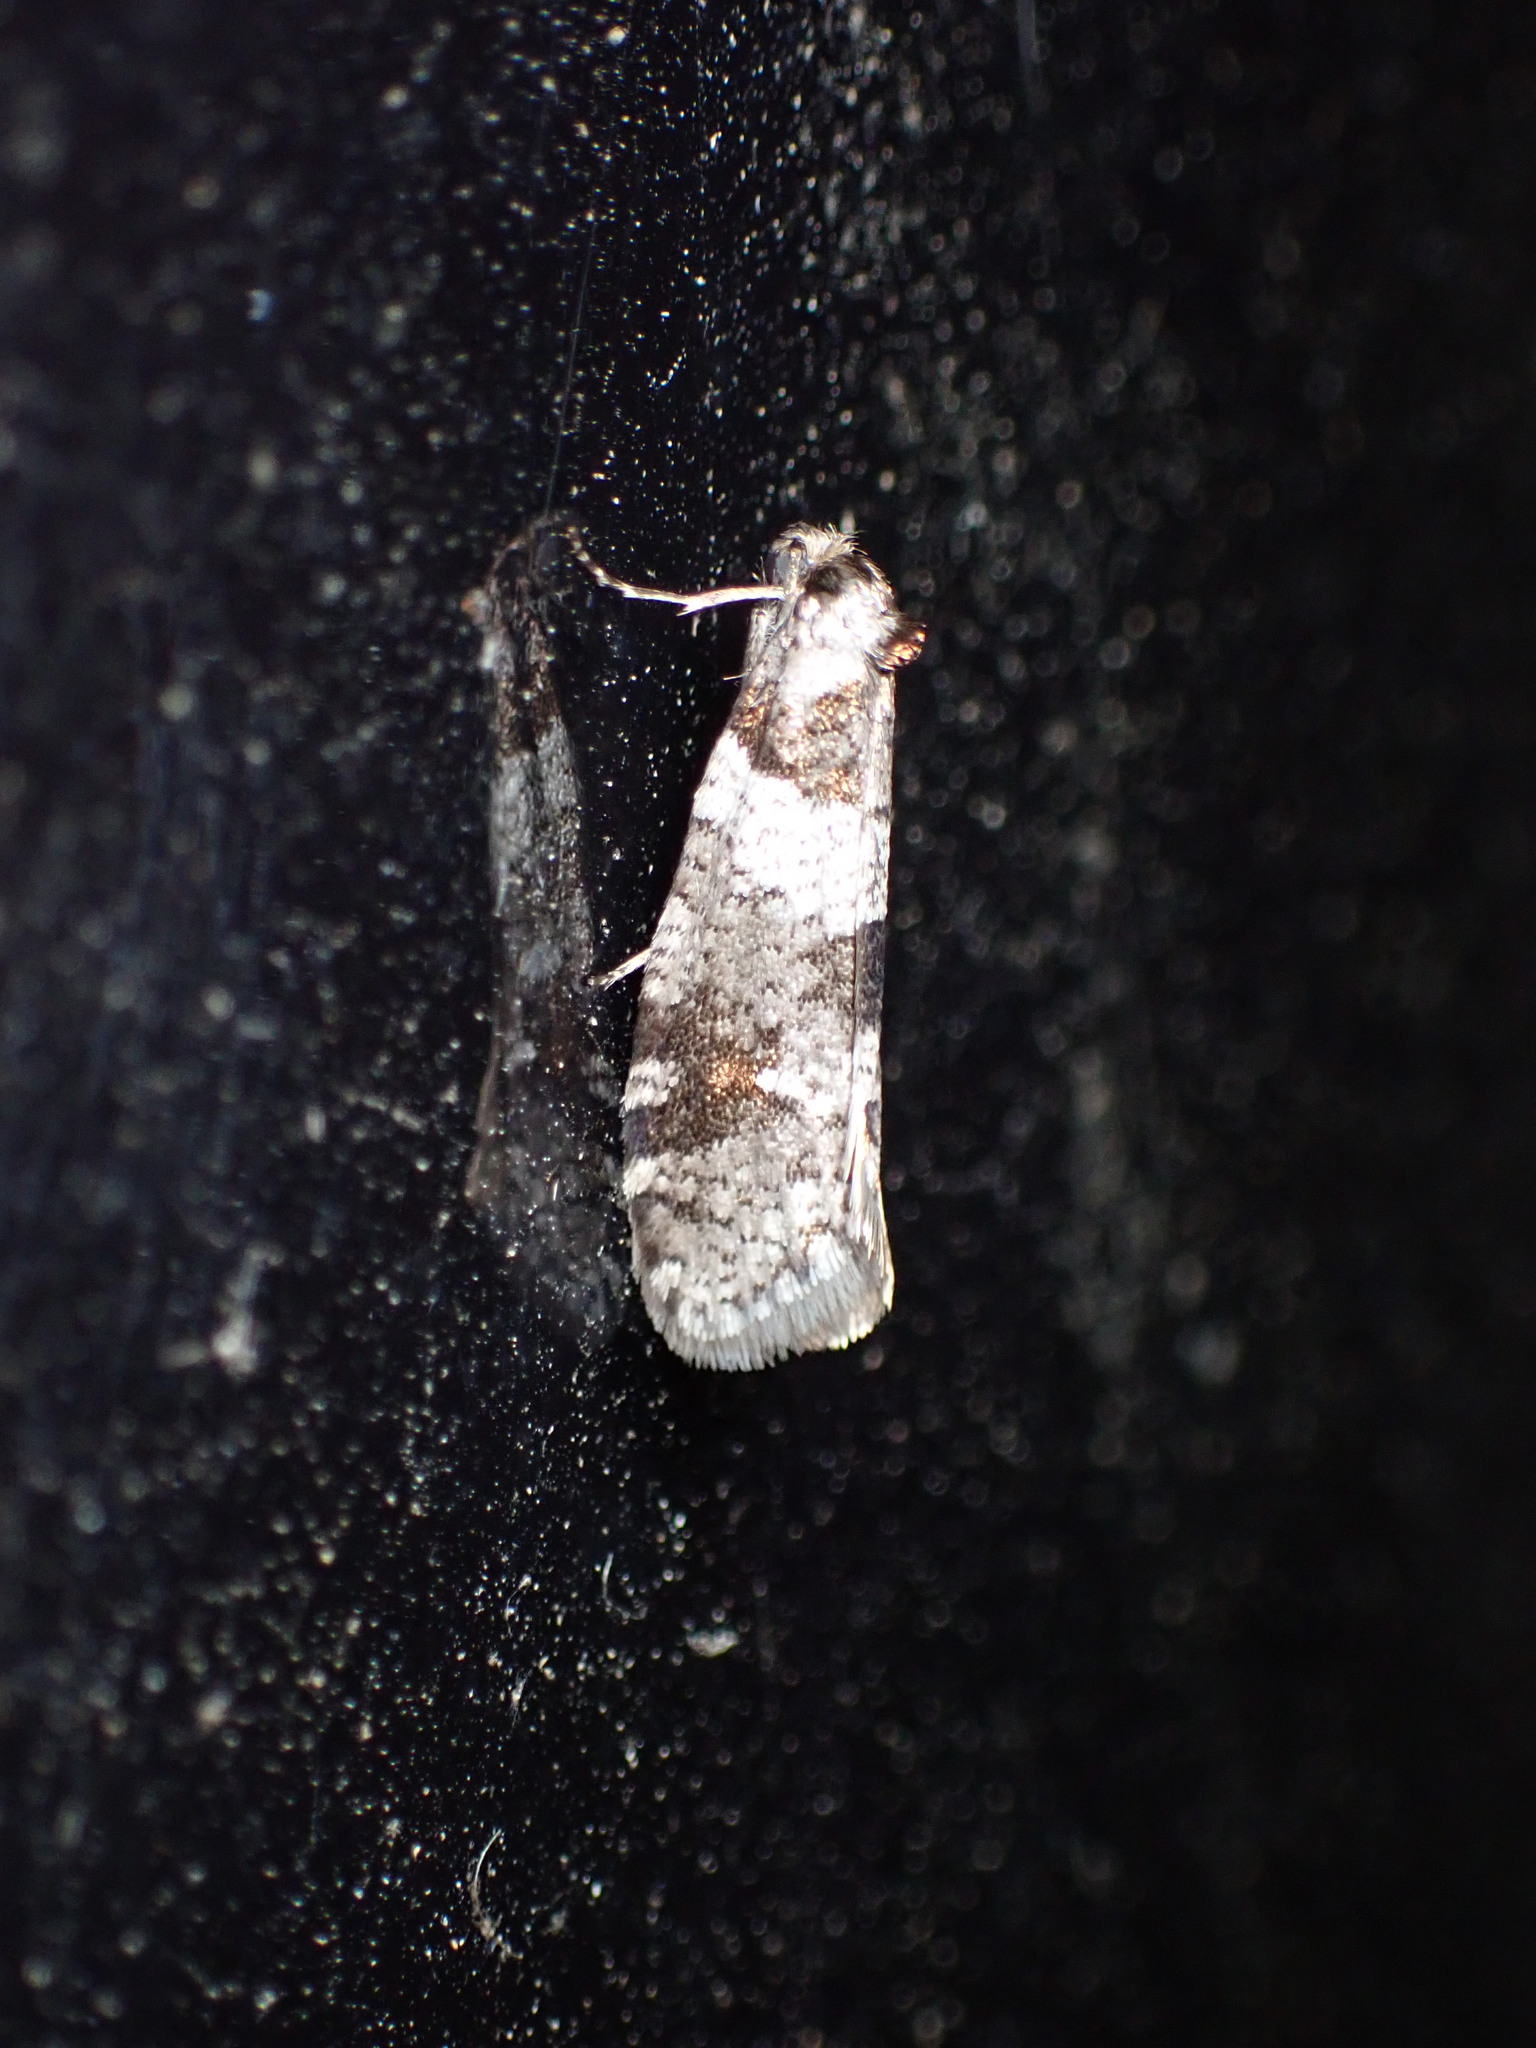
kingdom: Animalia
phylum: Arthropoda
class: Insecta
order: Lepidoptera
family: Psychidae
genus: Lepidoscia
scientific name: Lepidoscia heliochares
